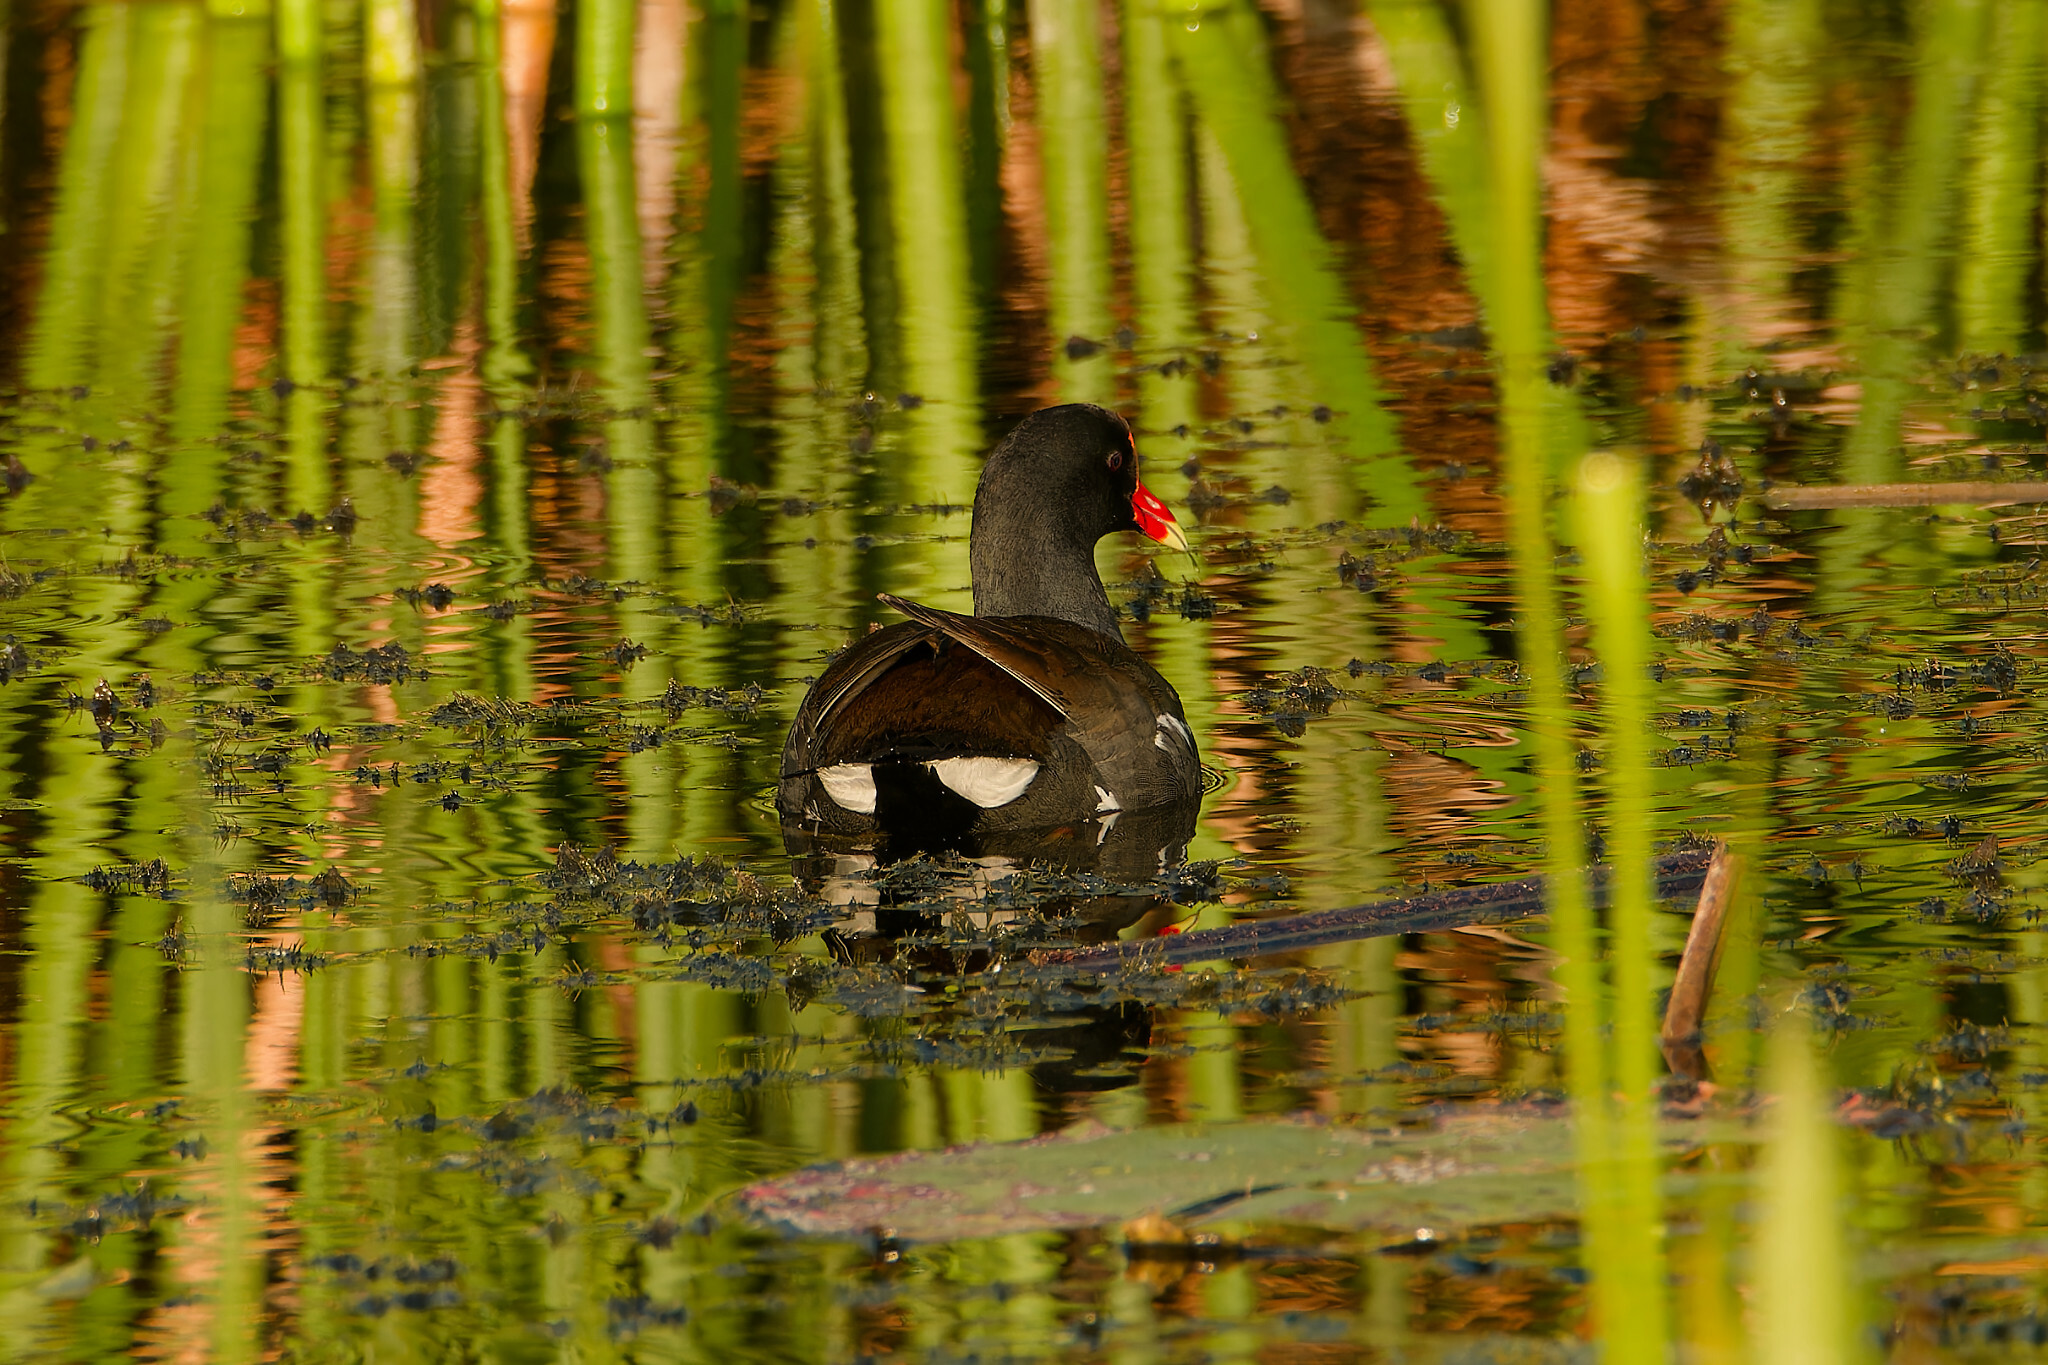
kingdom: Animalia
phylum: Chordata
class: Aves
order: Gruiformes
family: Rallidae
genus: Gallinula
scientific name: Gallinula chloropus
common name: Common moorhen
